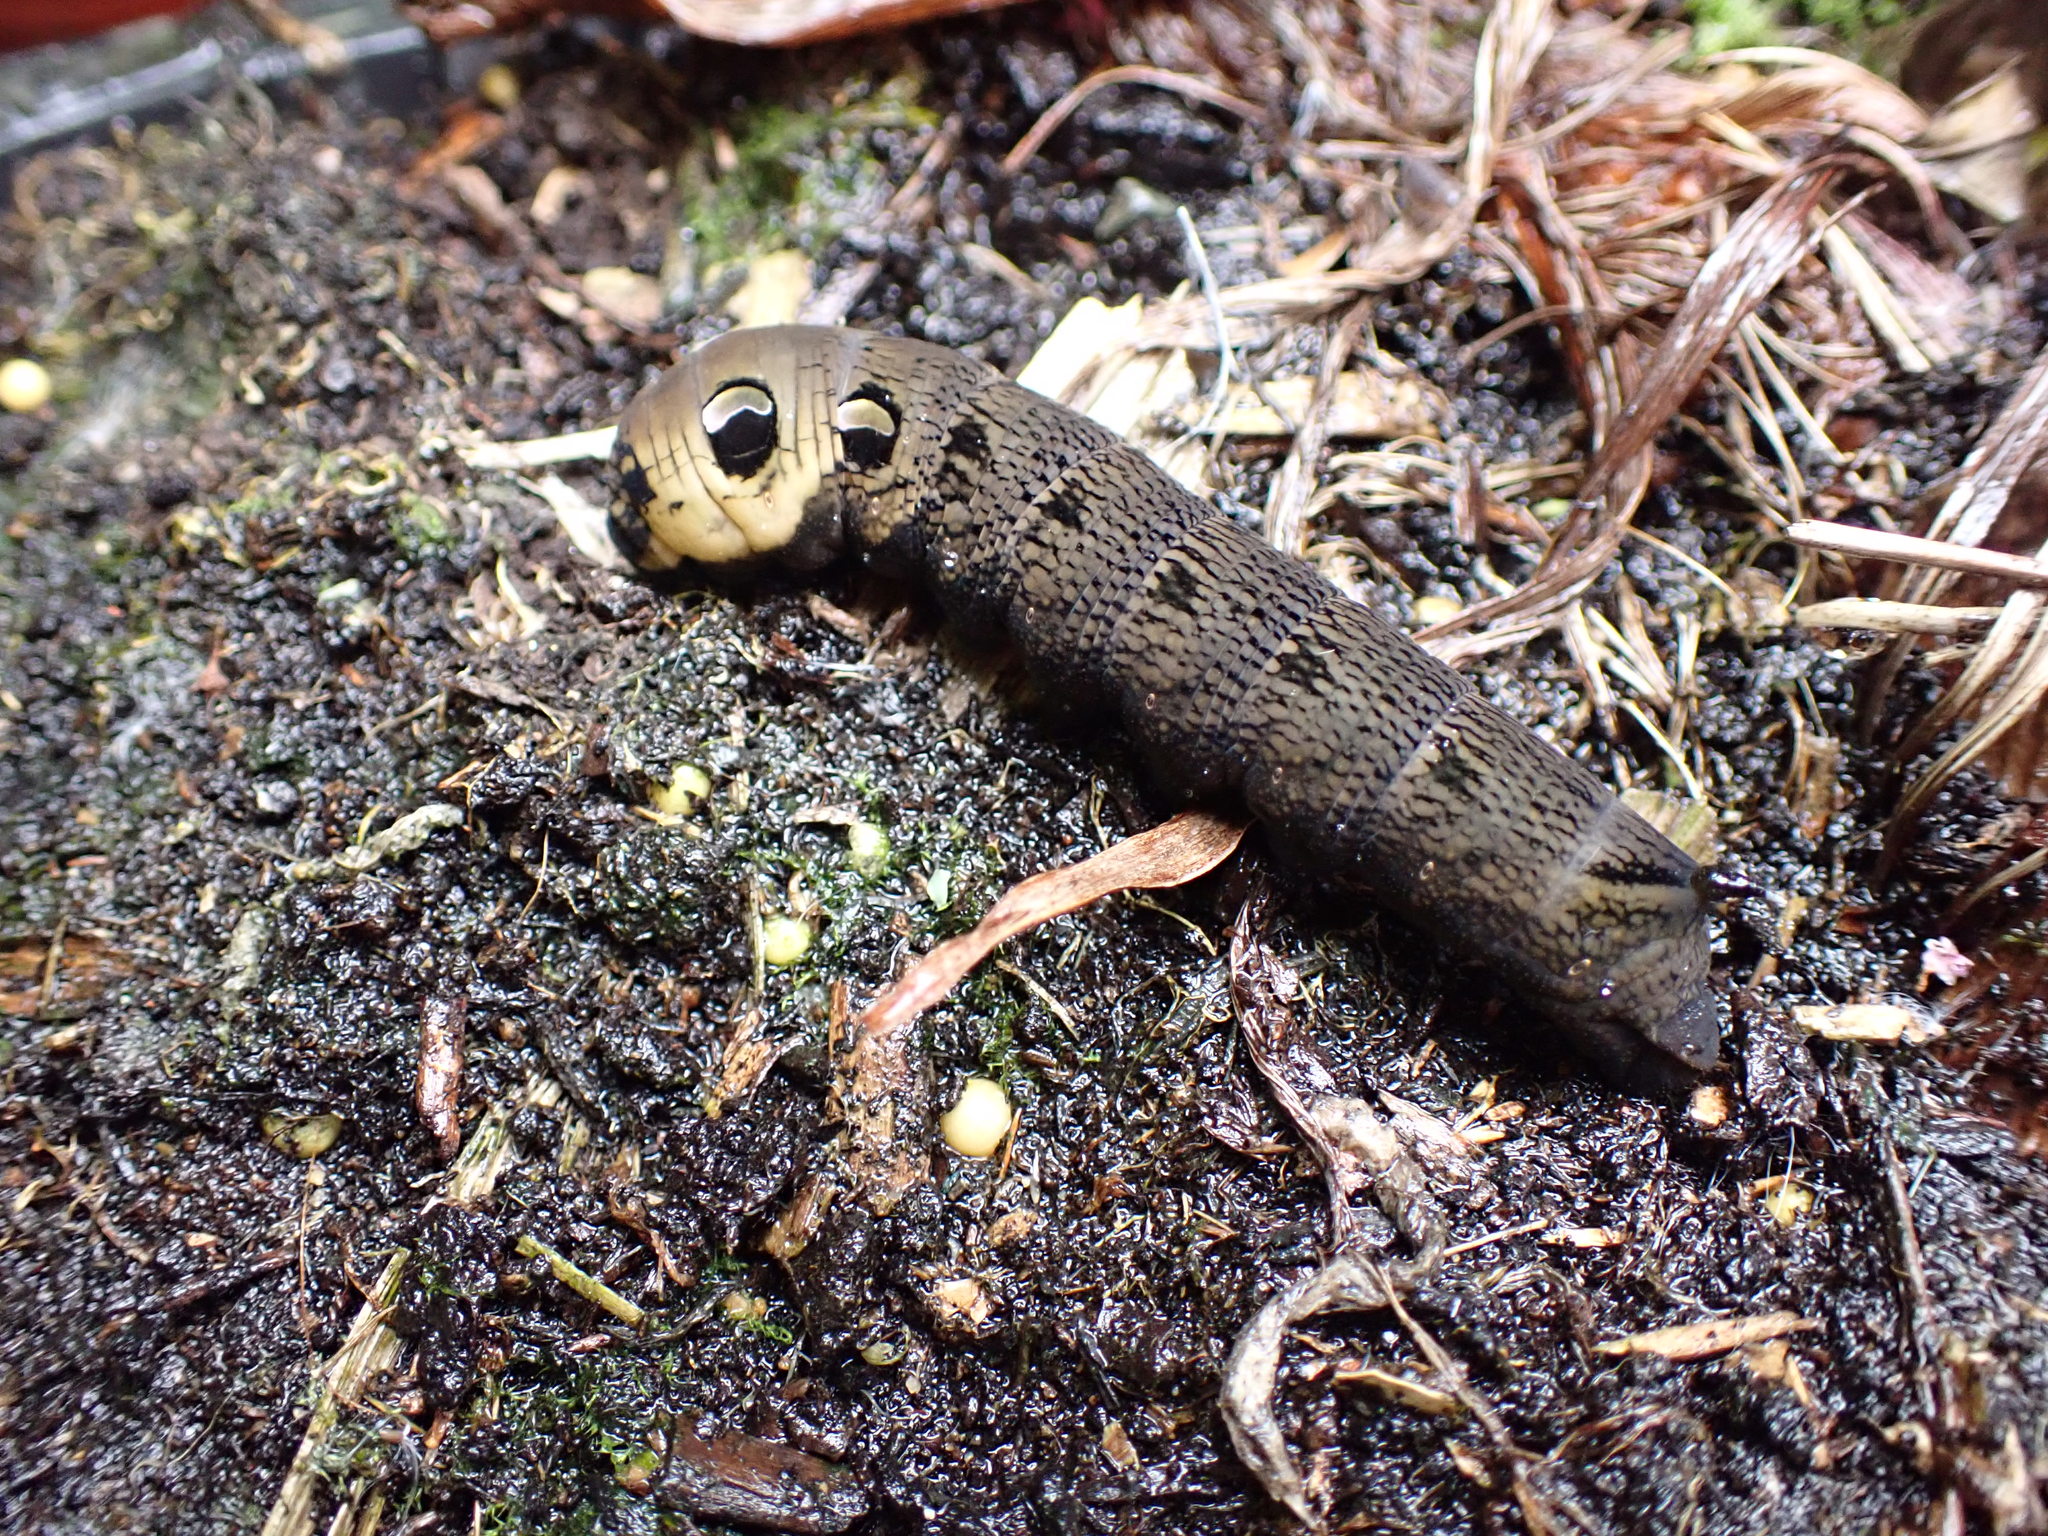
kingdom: Animalia
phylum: Arthropoda
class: Insecta
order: Lepidoptera
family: Sphingidae
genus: Deilephila
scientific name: Deilephila elpenor
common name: Elephant hawk-moth
